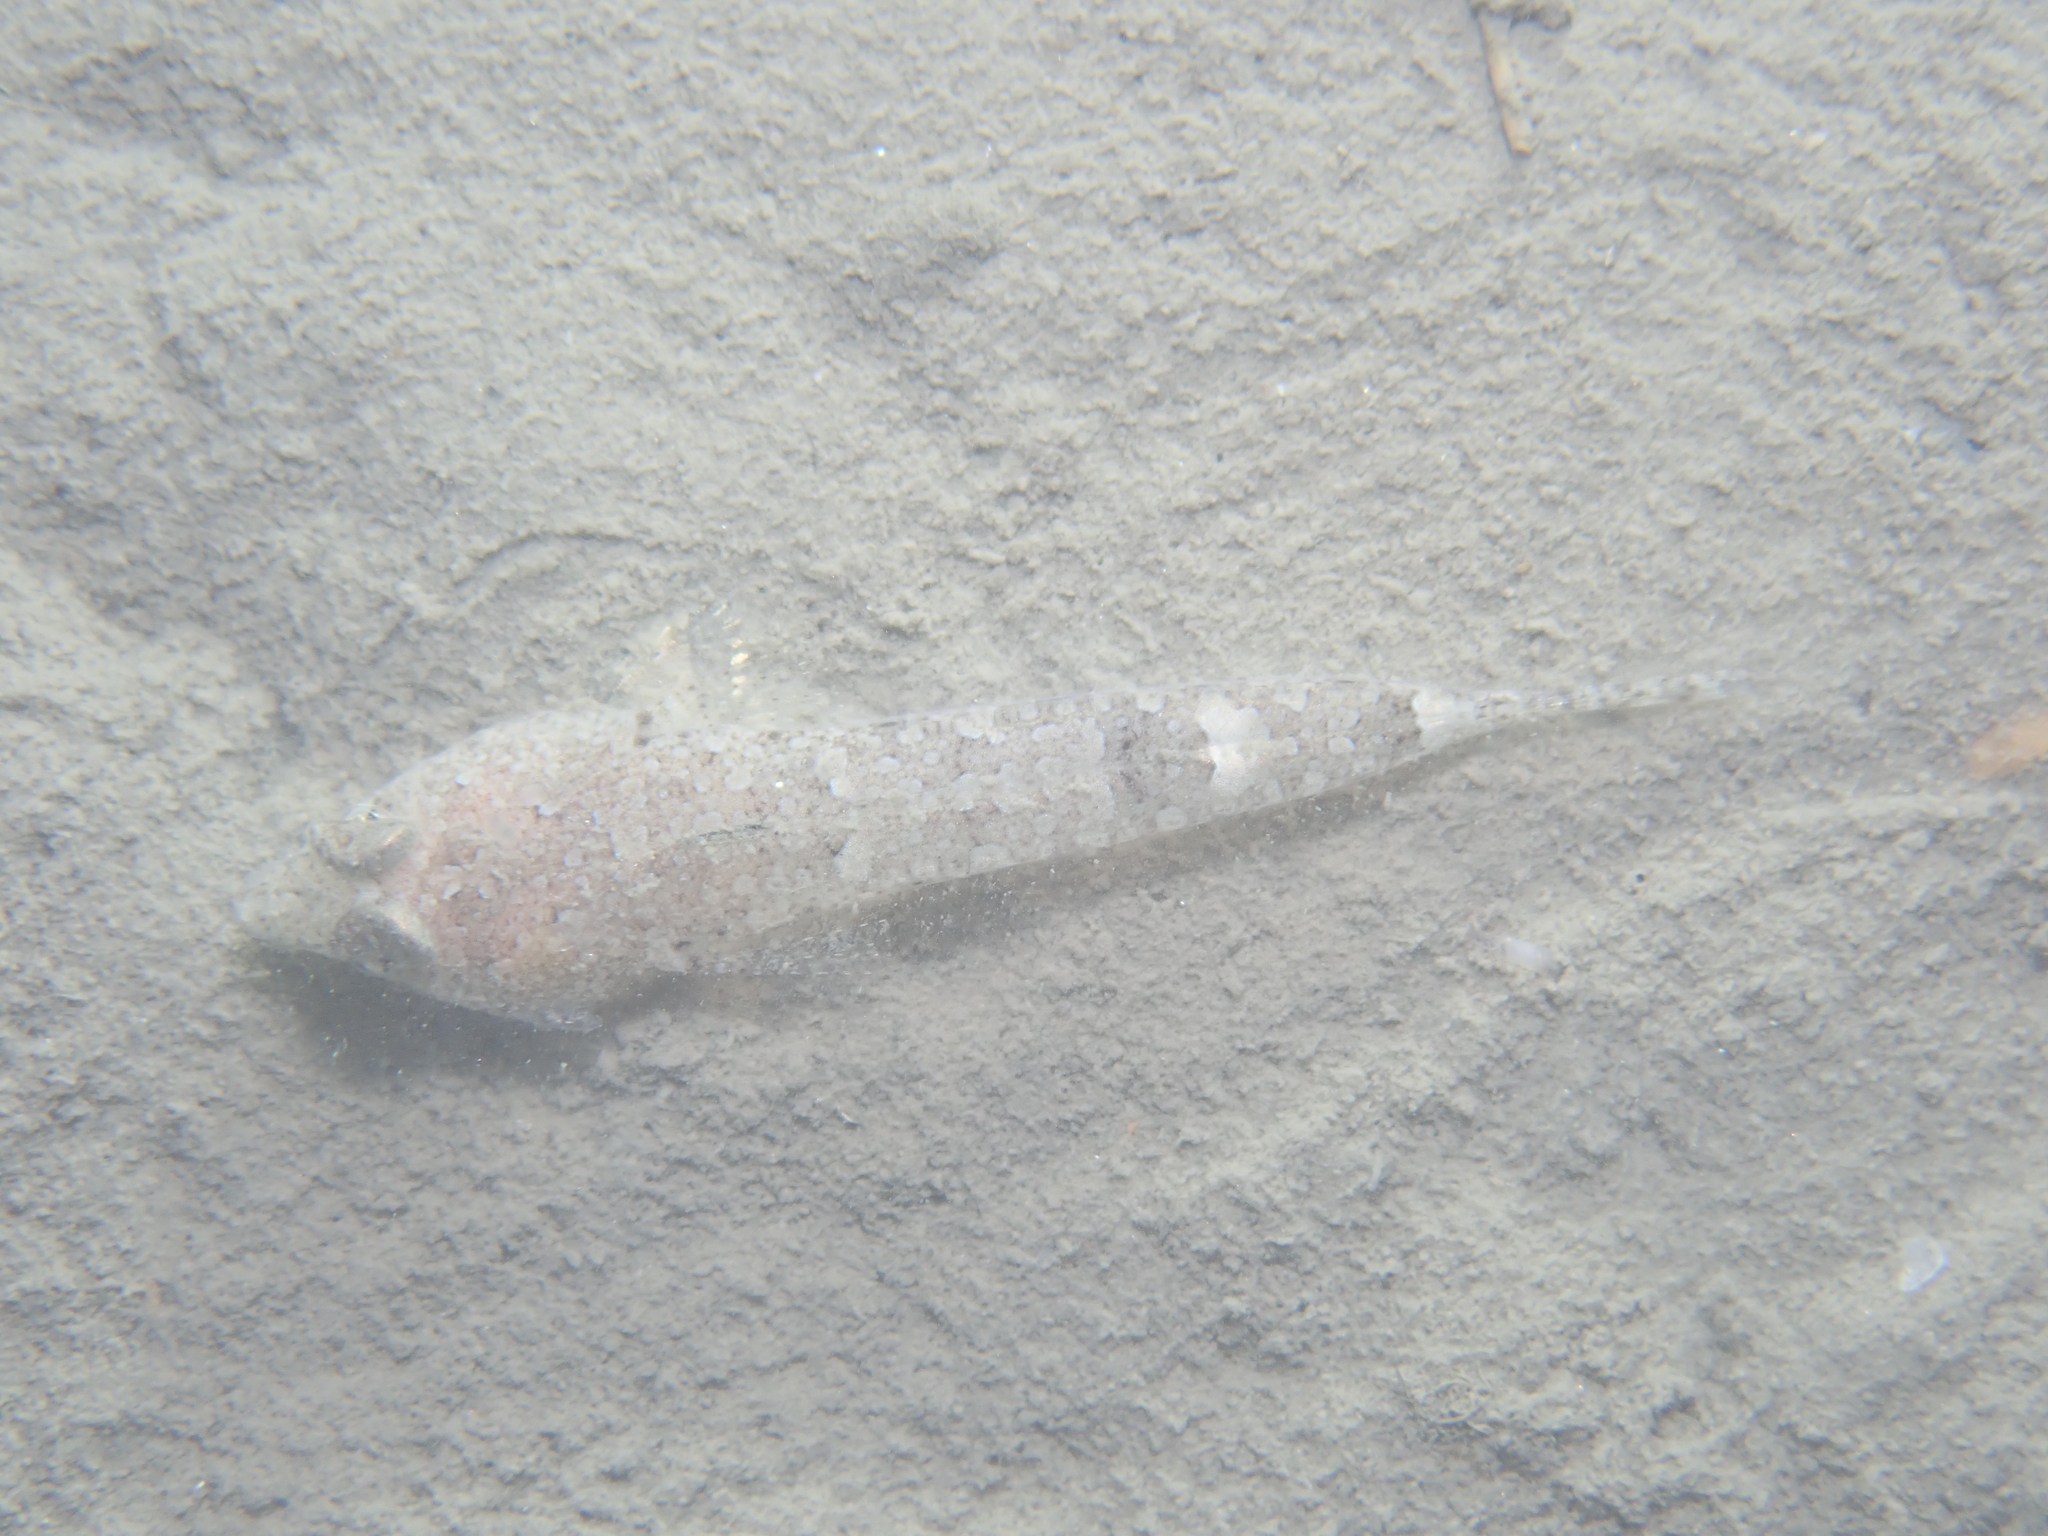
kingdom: Animalia
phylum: Chordata
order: Perciformes
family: Callionymidae
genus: Callionymus
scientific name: Callionymus risso
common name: Risso’s dragonet
